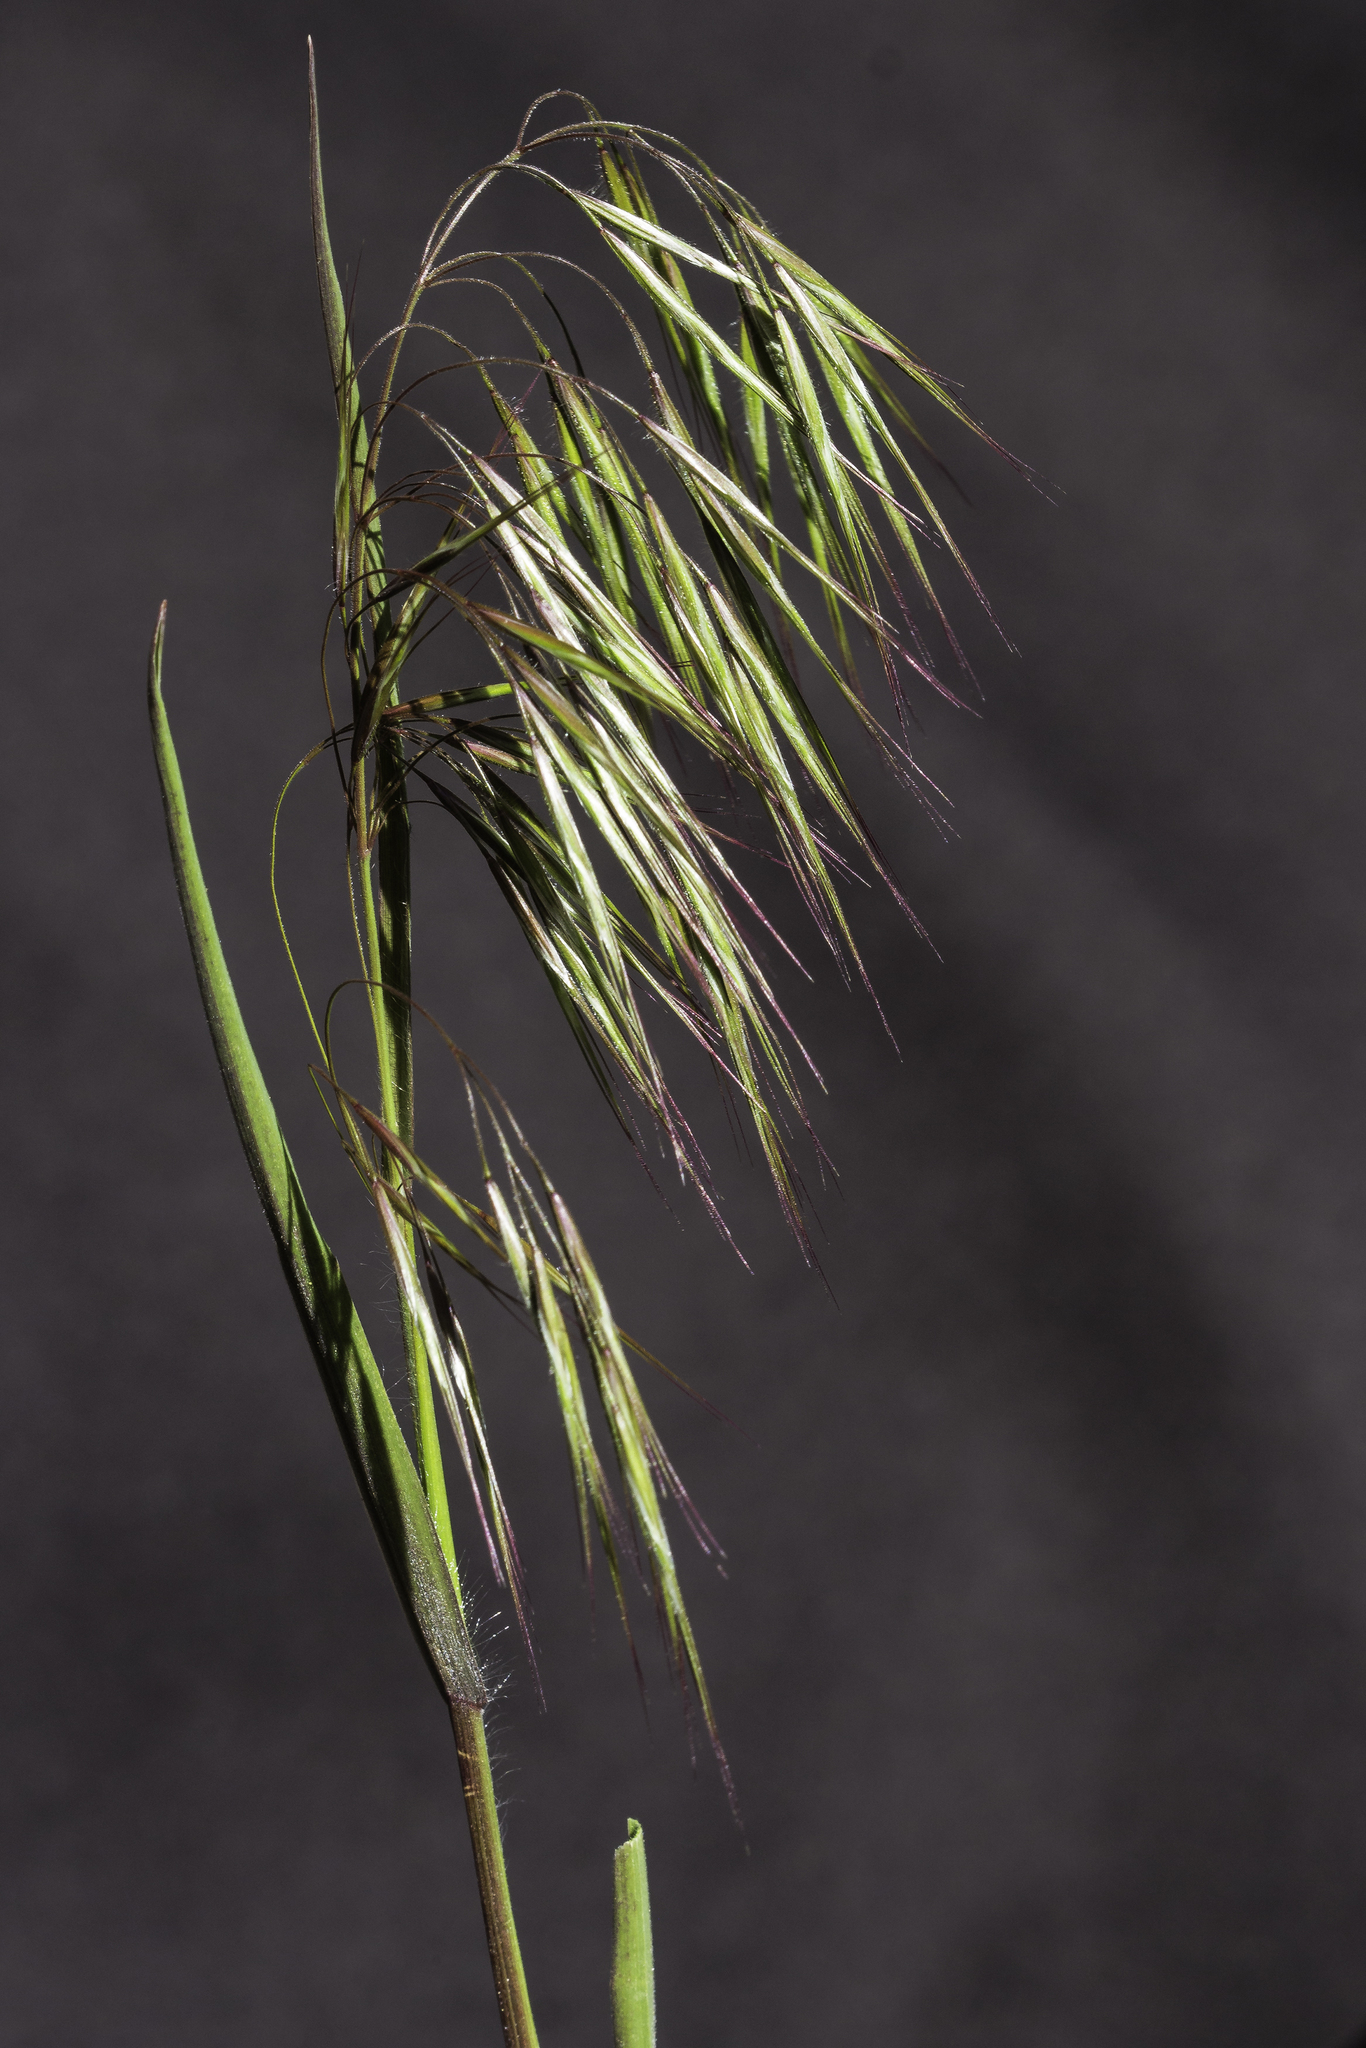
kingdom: Plantae
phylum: Tracheophyta
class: Liliopsida
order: Poales
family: Poaceae
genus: Bromus
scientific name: Bromus tectorum
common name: Cheatgrass
